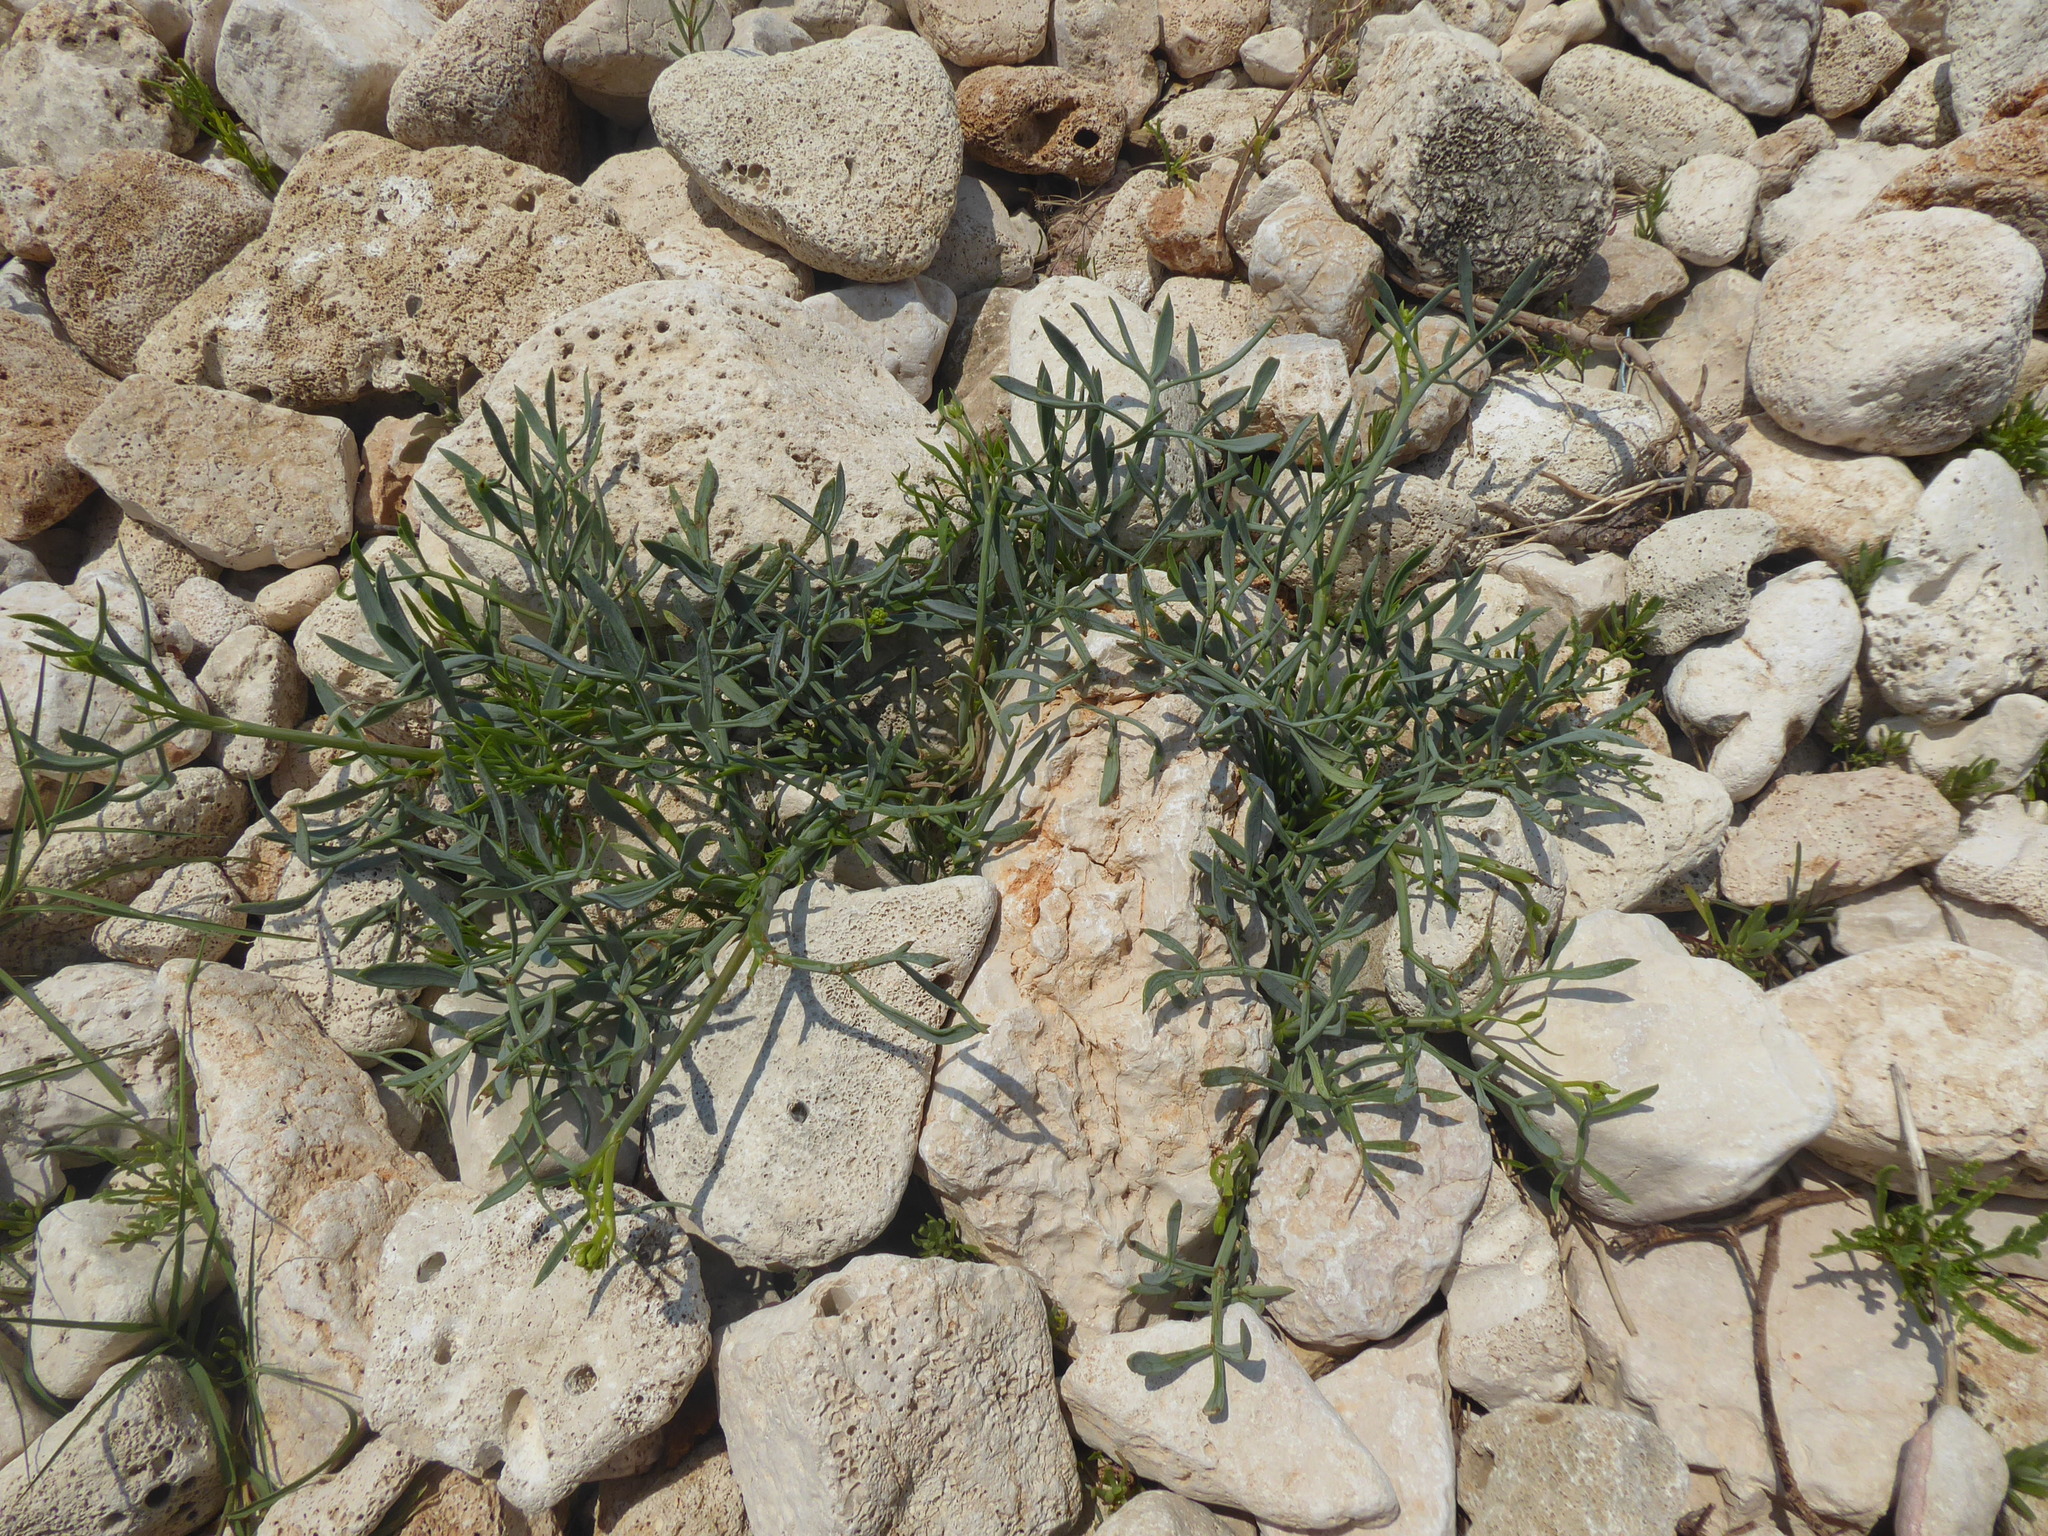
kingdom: Plantae
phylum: Tracheophyta
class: Magnoliopsida
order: Apiales
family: Apiaceae
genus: Crithmum
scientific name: Crithmum maritimum
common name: Rock samphire
